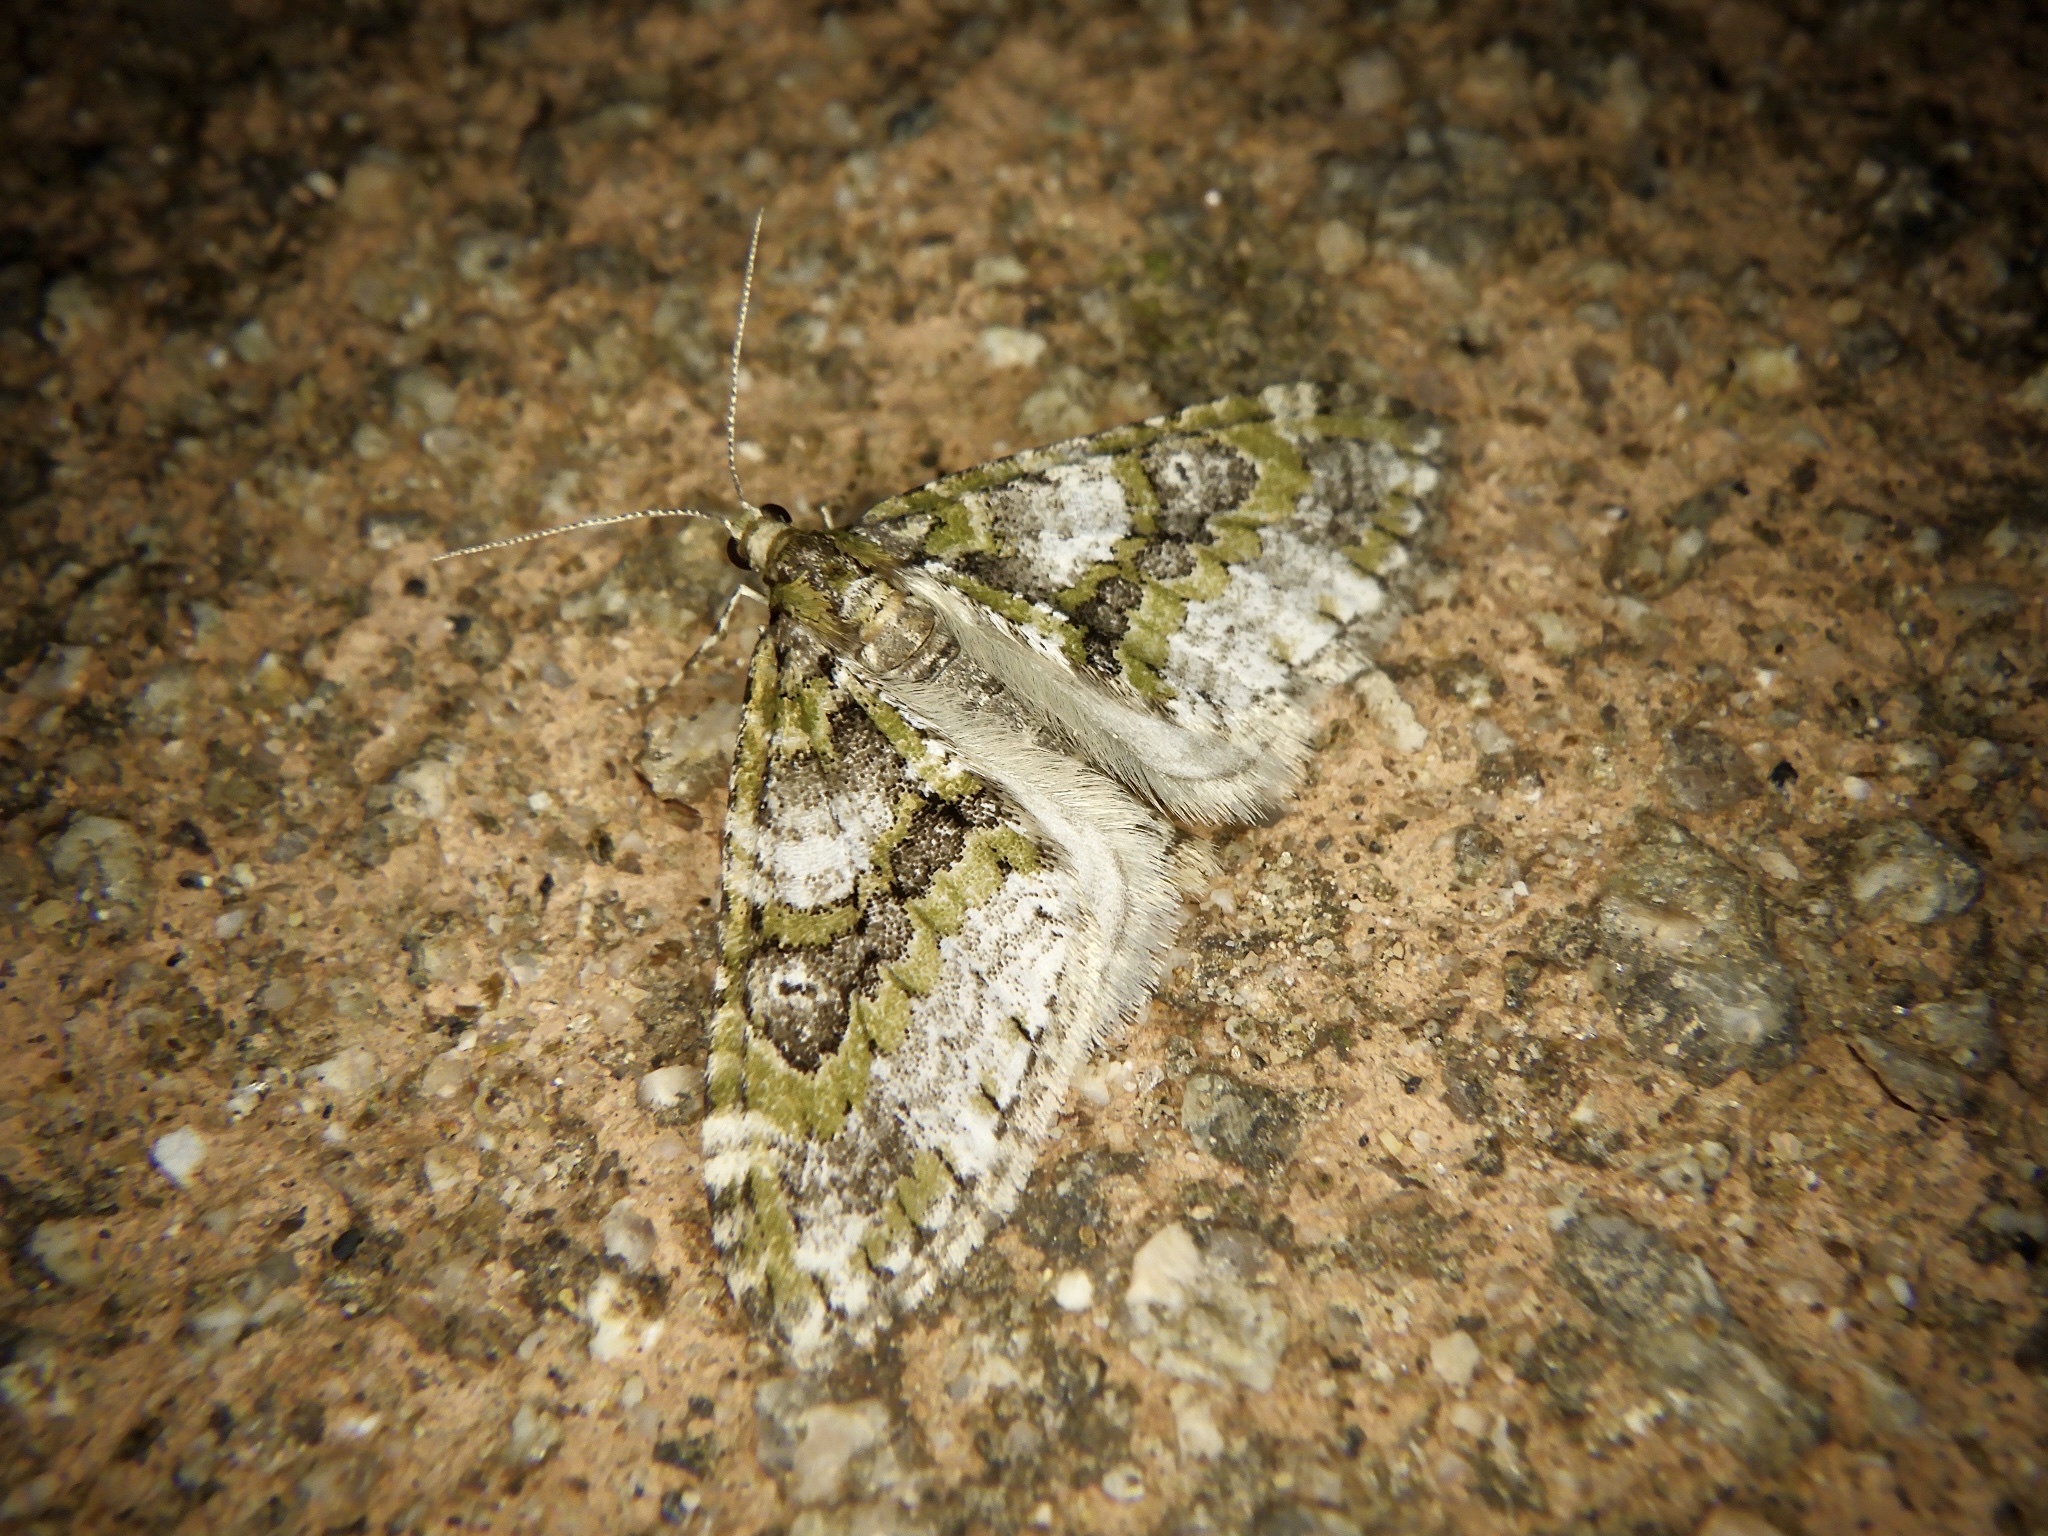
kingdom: Animalia
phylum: Arthropoda
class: Insecta
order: Lepidoptera
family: Geometridae
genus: Esakiopteryx
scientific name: Esakiopteryx volitans
